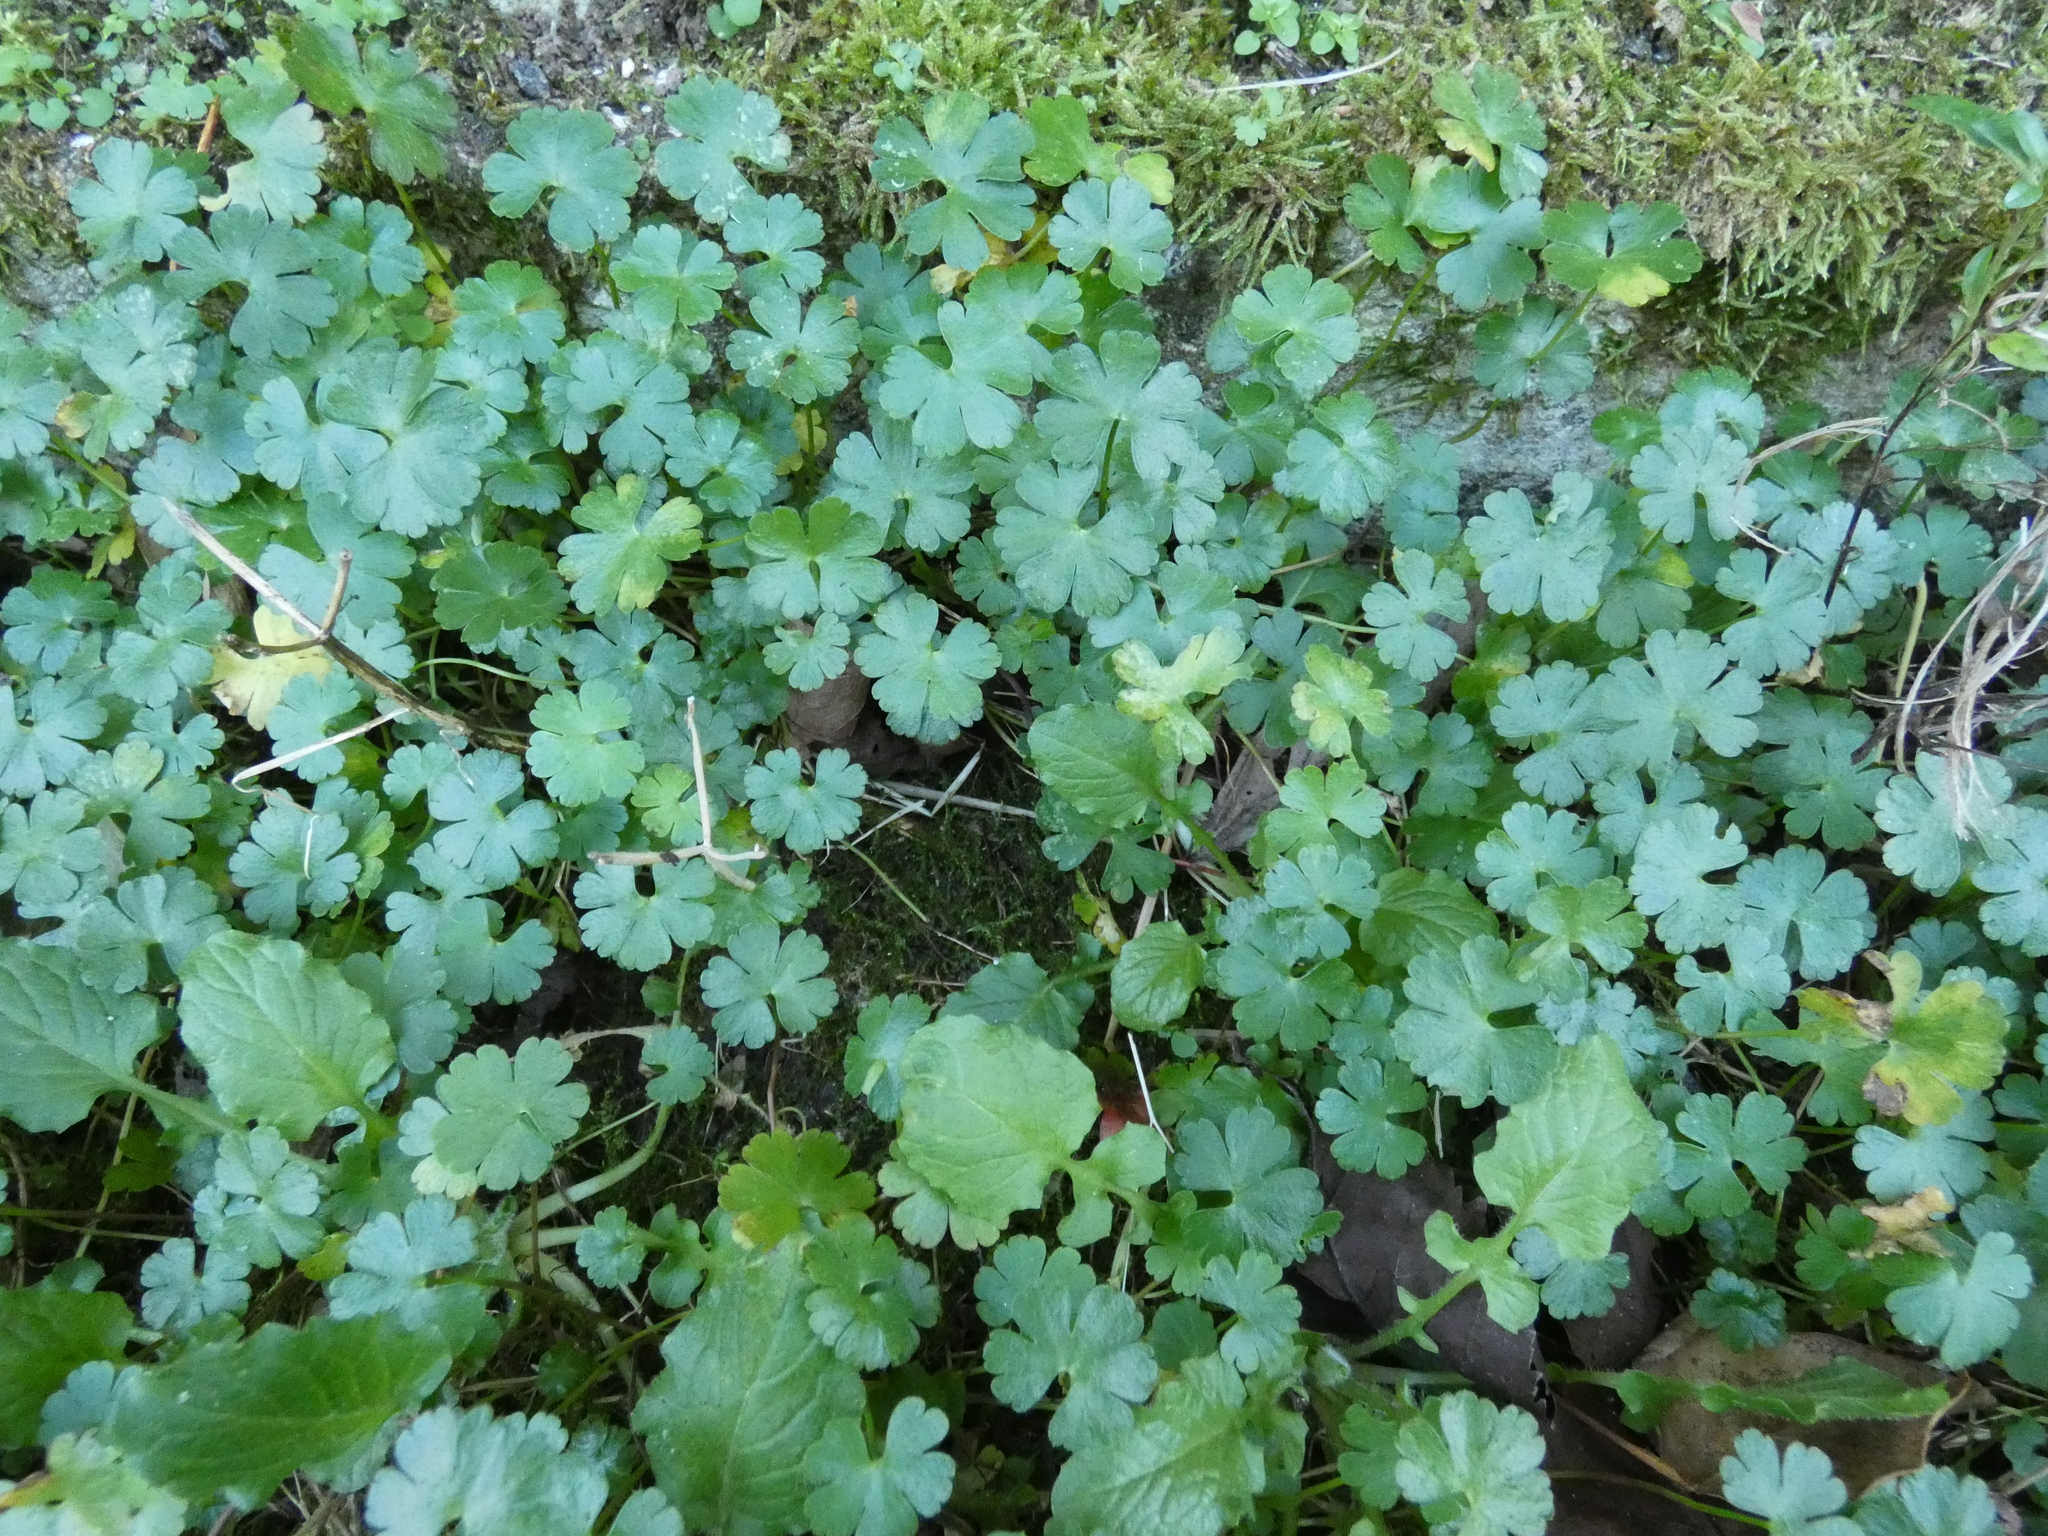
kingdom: Plantae
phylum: Tracheophyta
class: Magnoliopsida
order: Geraniales
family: Geraniaceae
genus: Geranium
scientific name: Geranium lucidum
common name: Shining crane's-bill
